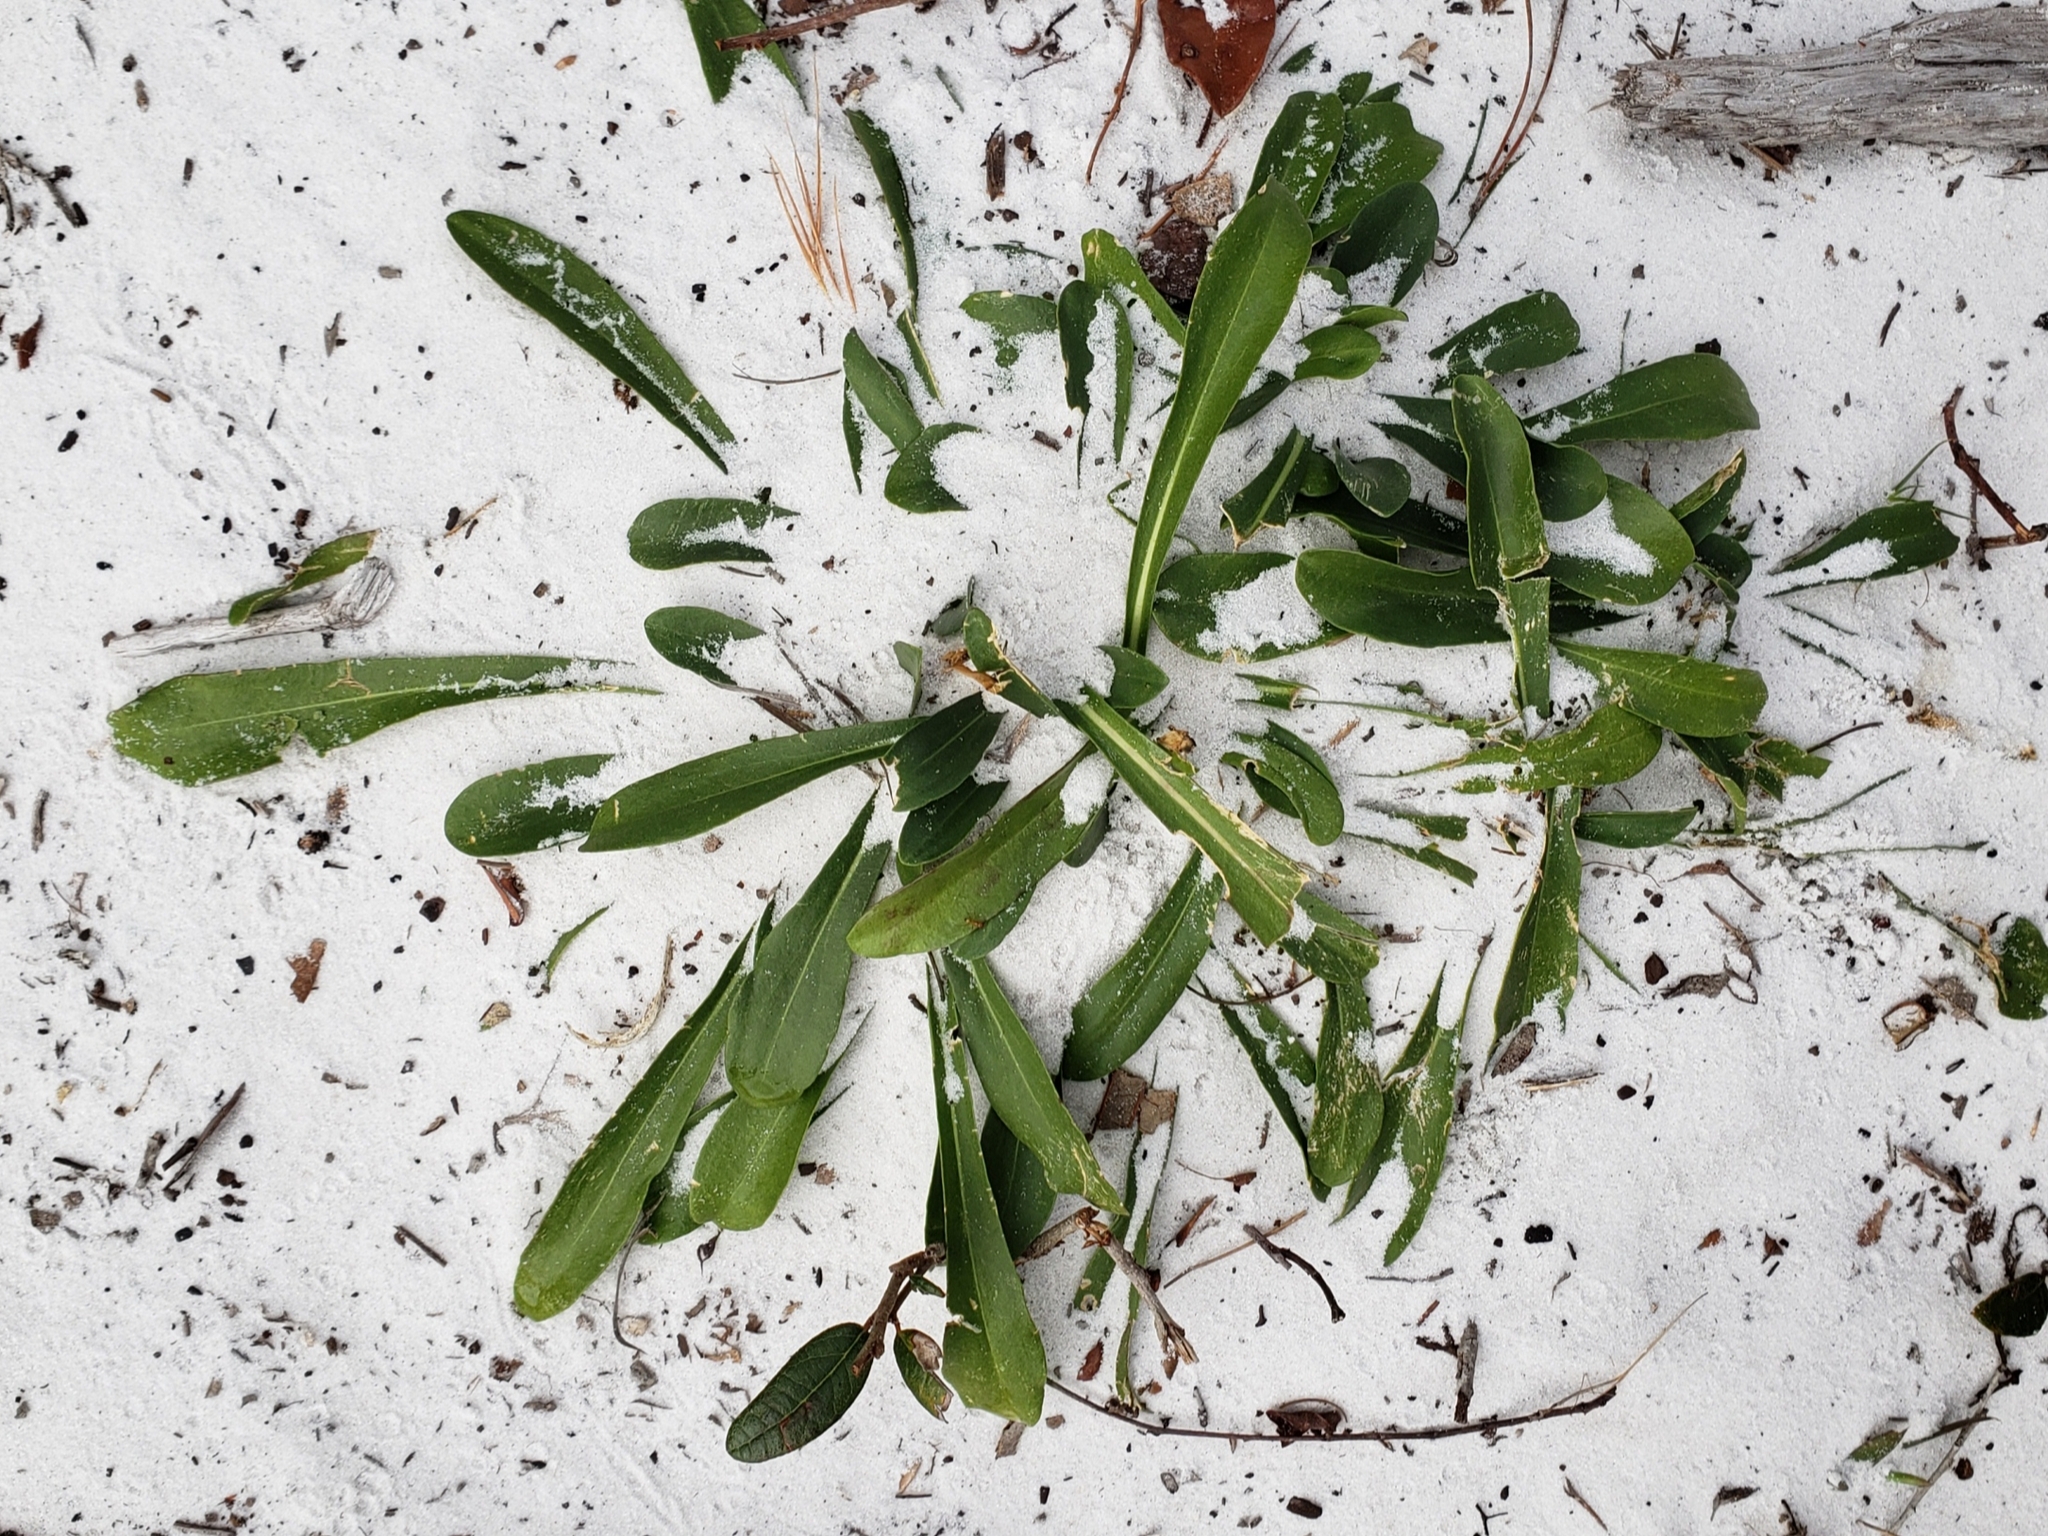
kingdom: Plantae
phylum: Tracheophyta
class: Magnoliopsida
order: Asterales
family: Asteraceae
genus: Carphephorus
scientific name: Carphephorus corymbosus
